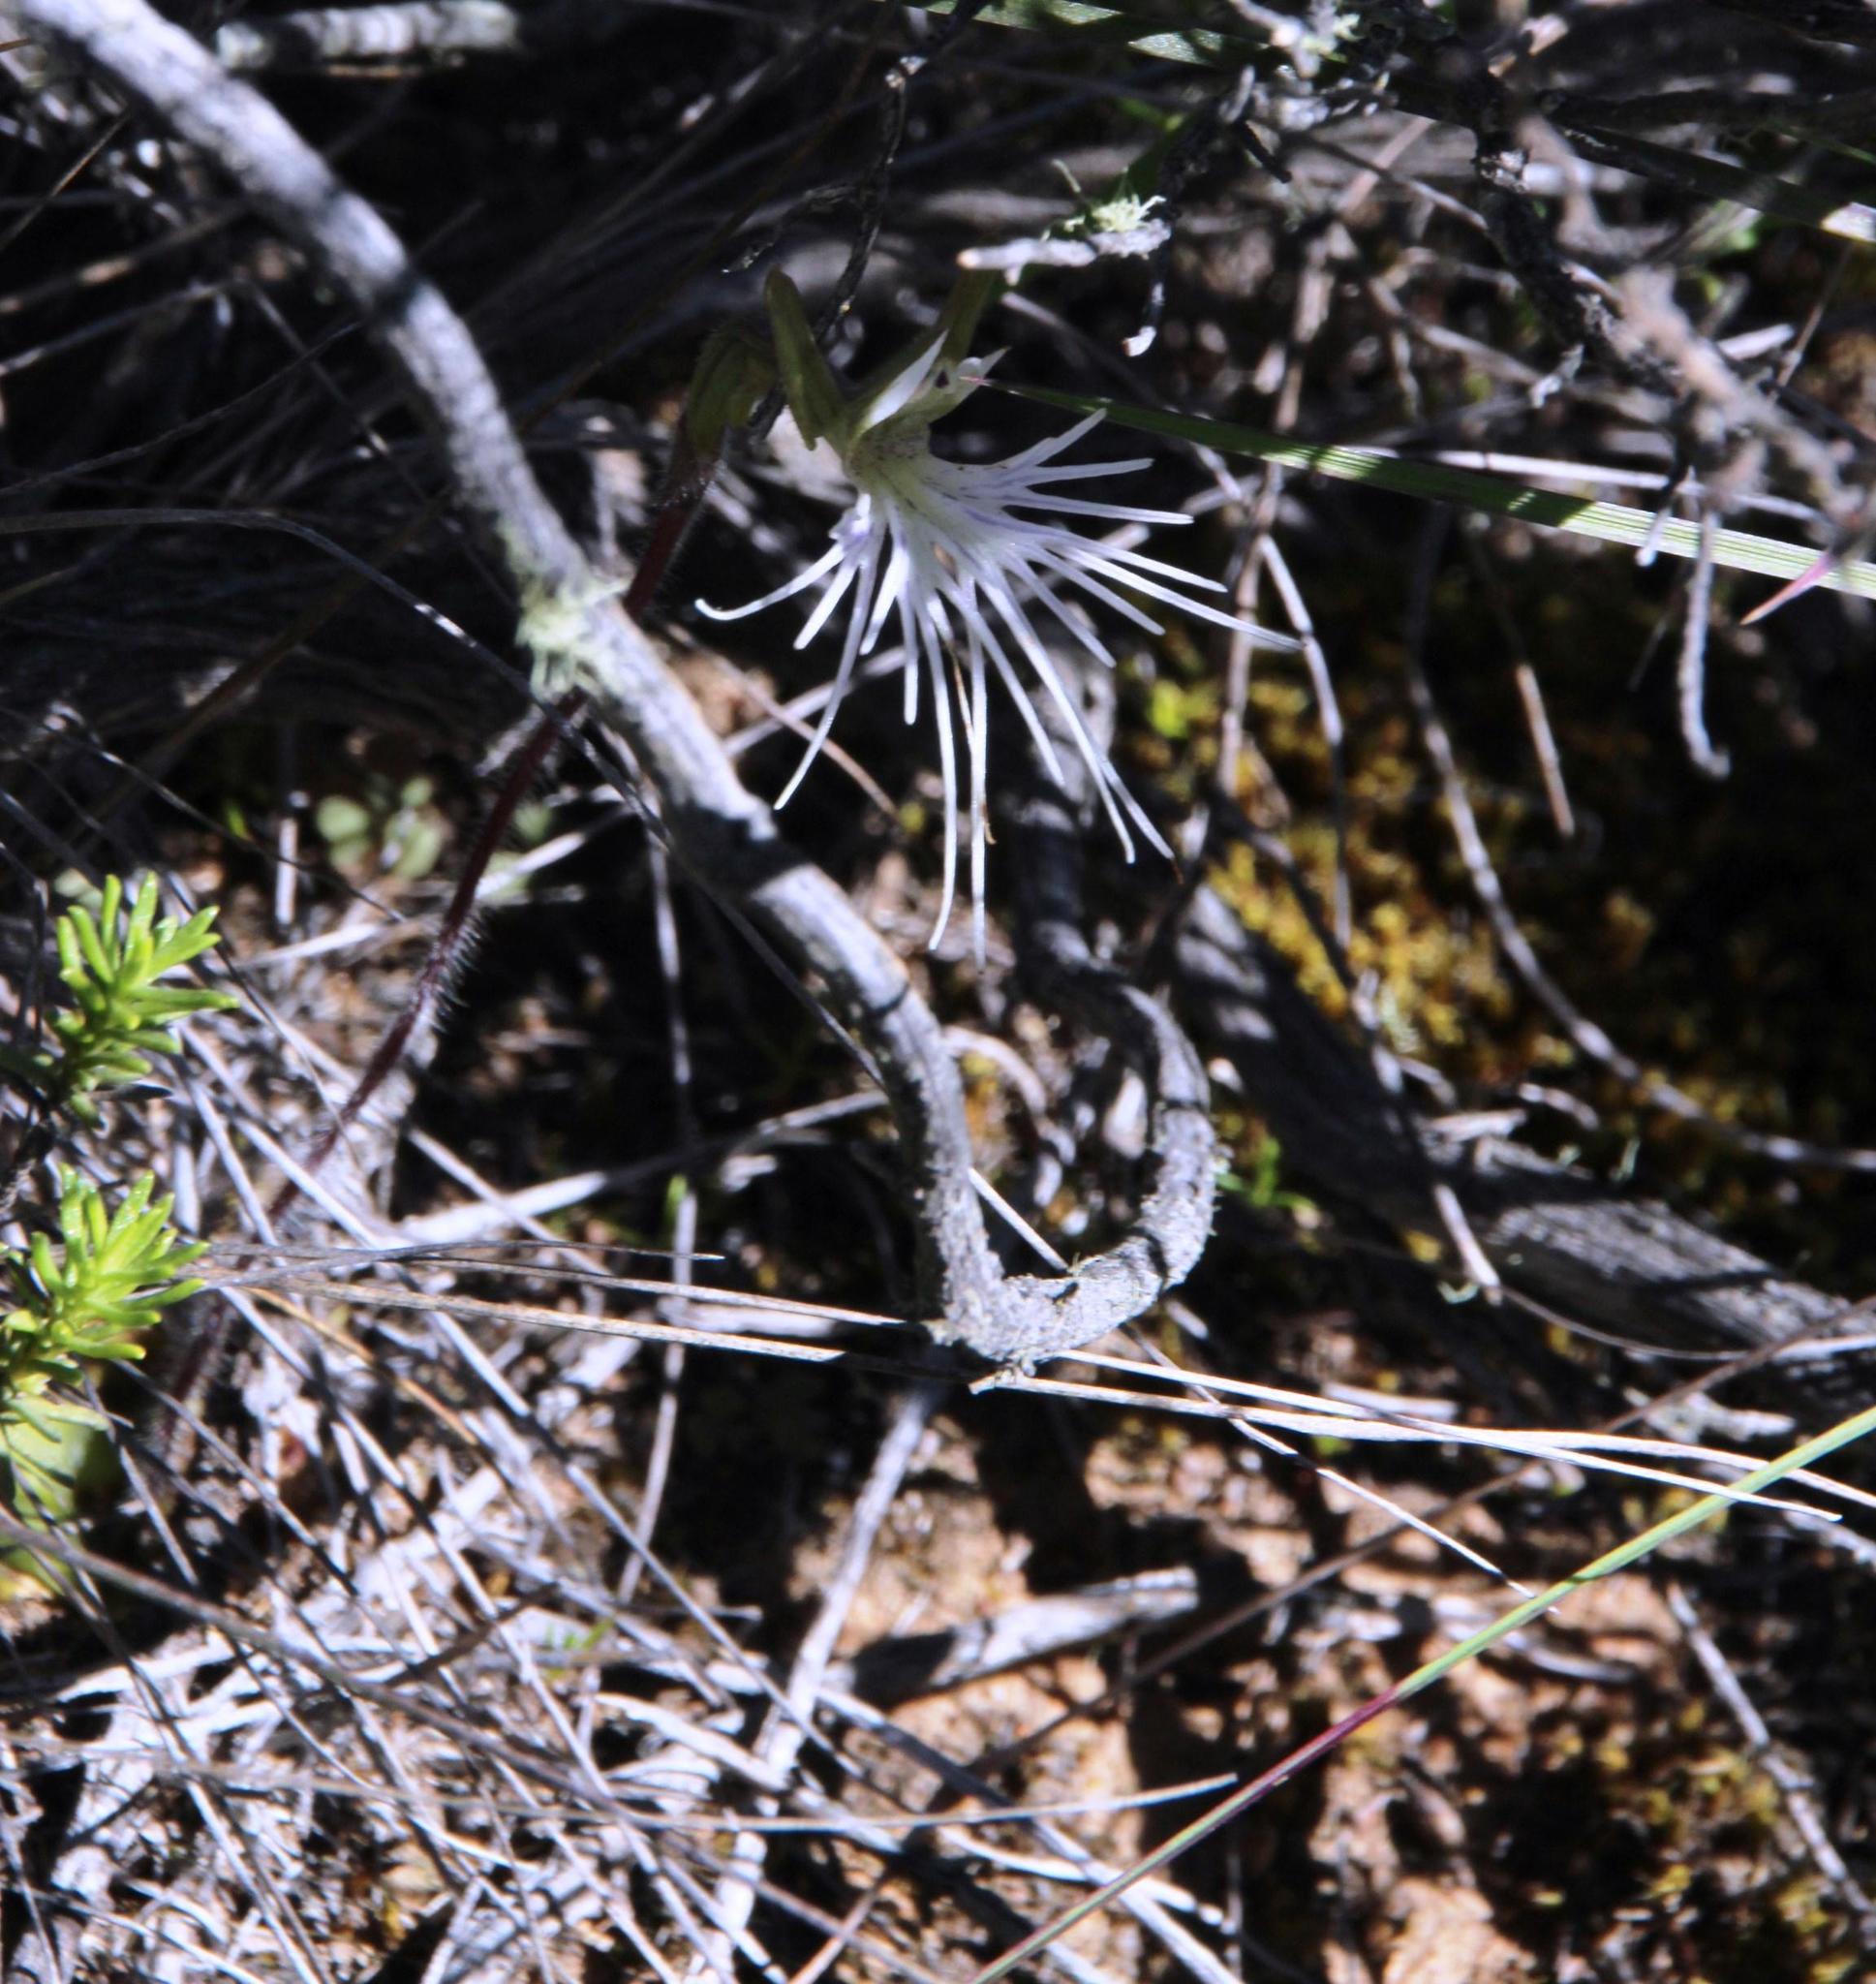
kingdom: Plantae
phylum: Tracheophyta
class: Liliopsida
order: Asparagales
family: Orchidaceae
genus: Holothrix
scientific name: Holothrix burmanniana
